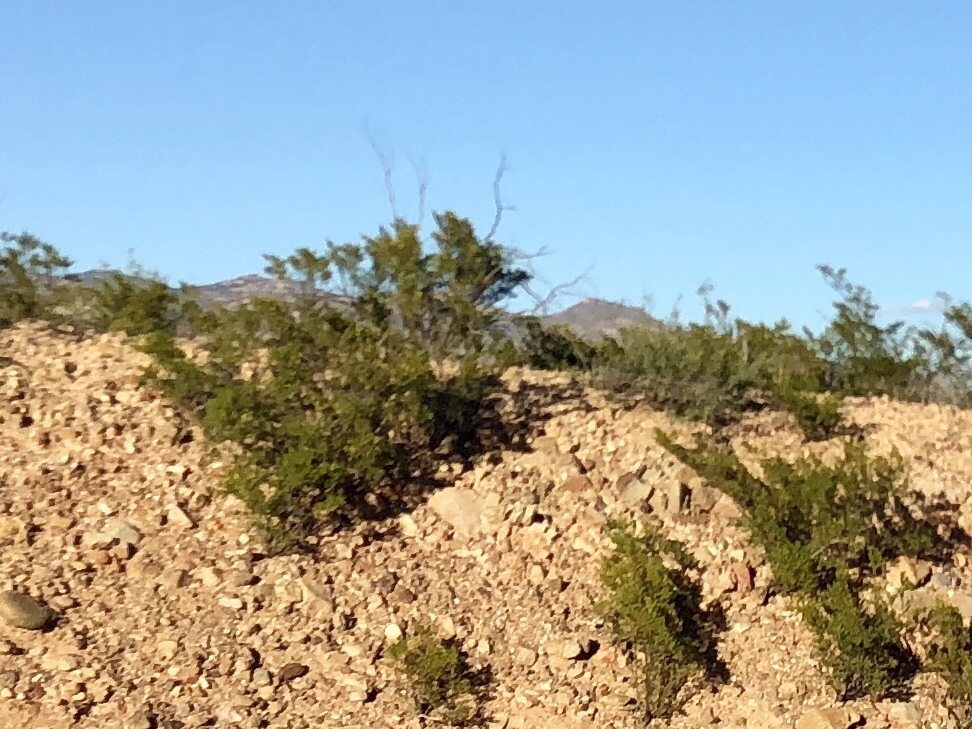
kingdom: Plantae
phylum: Tracheophyta
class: Magnoliopsida
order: Zygophyllales
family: Zygophyllaceae
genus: Larrea
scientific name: Larrea tridentata
